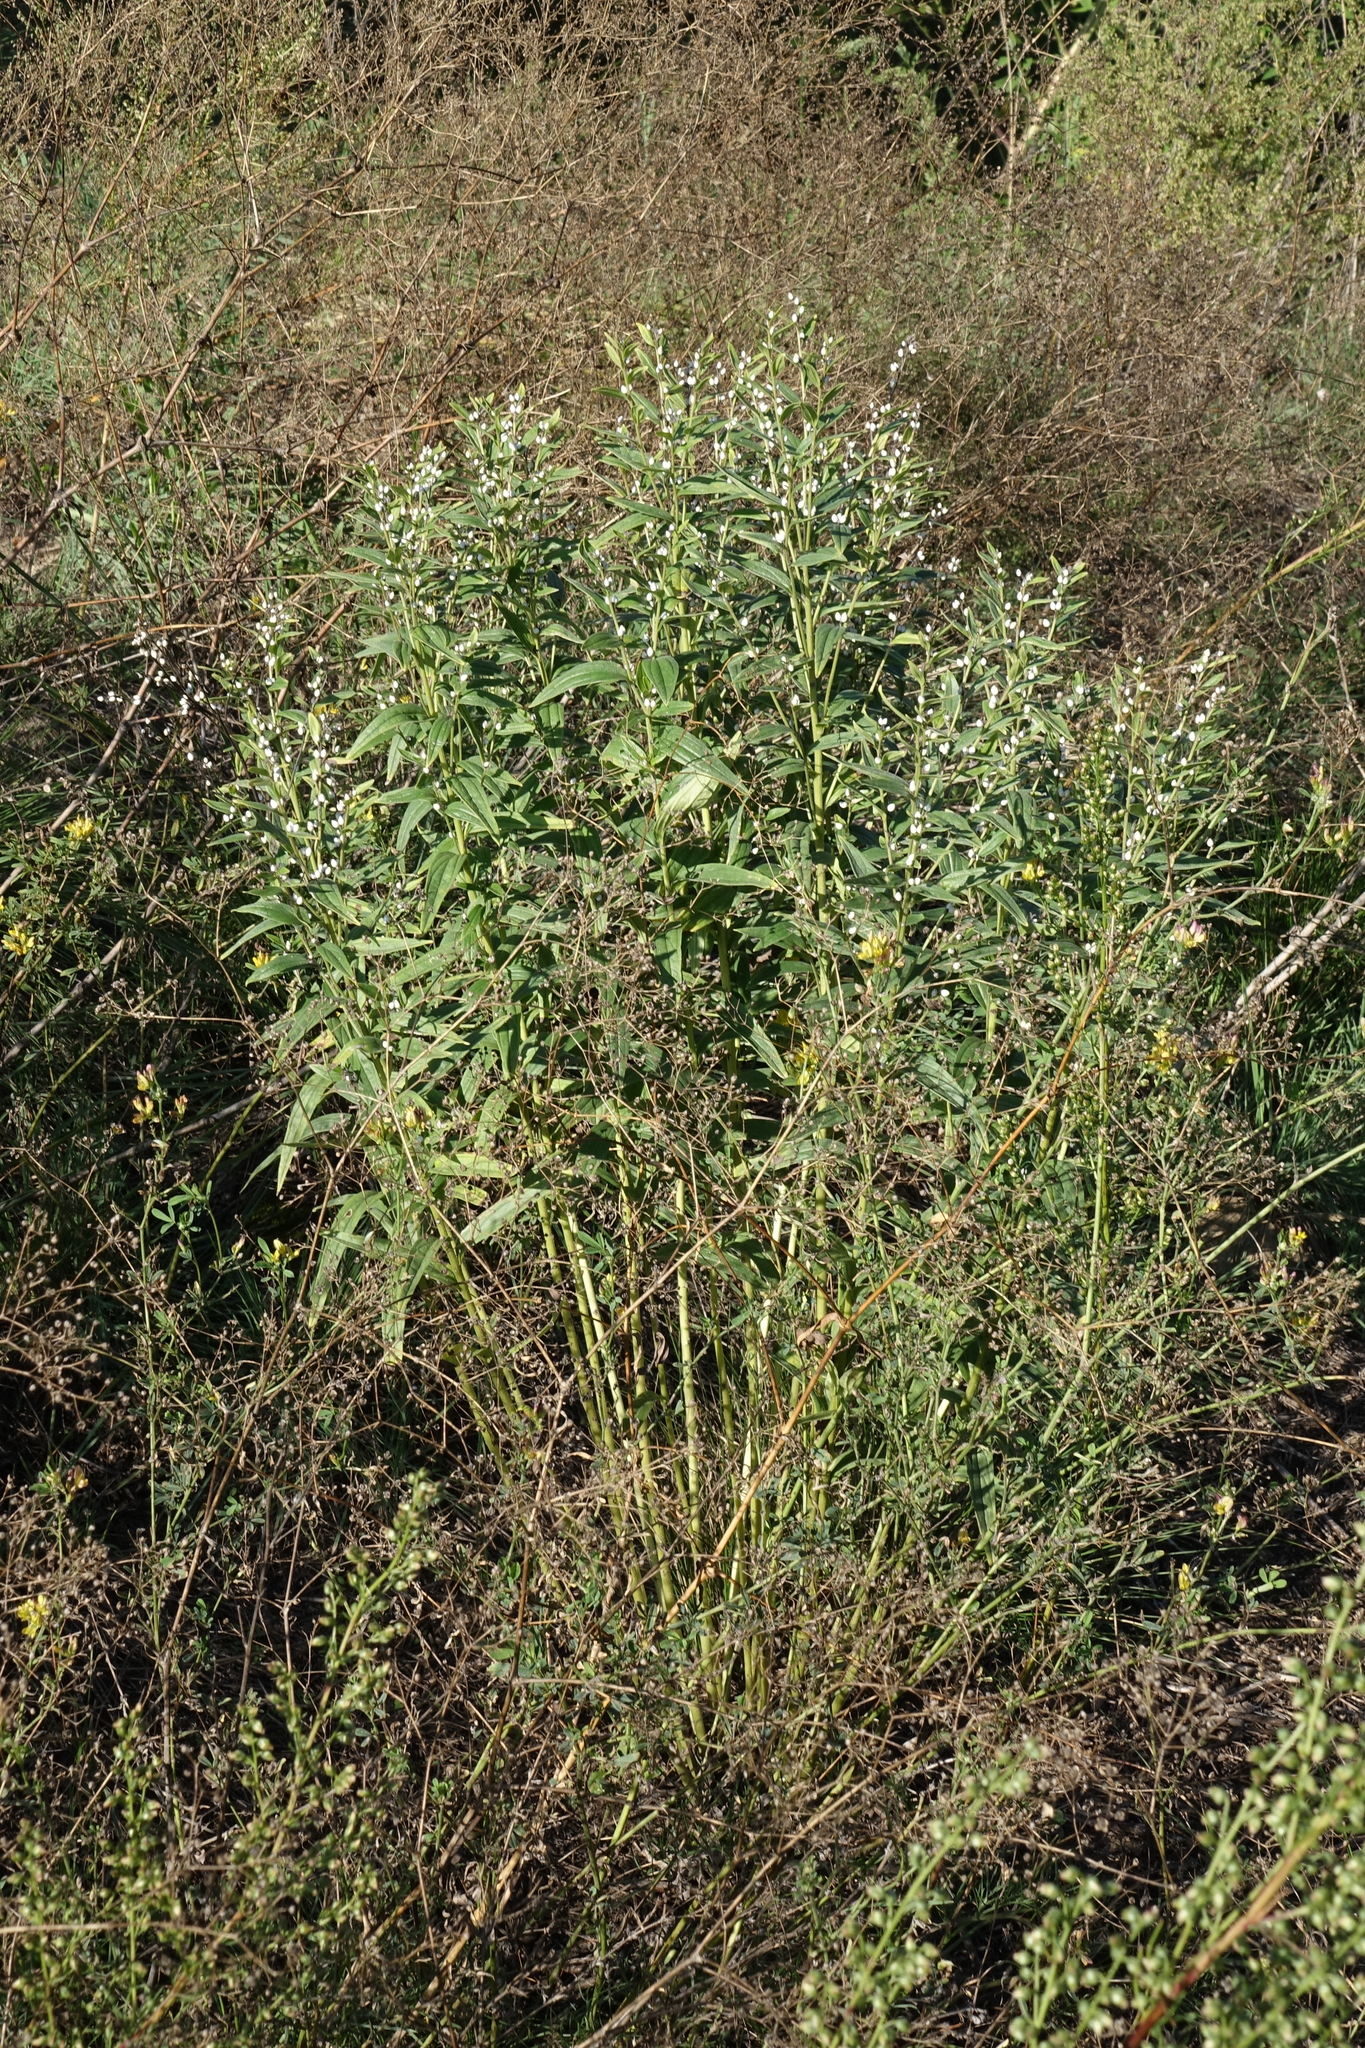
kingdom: Plantae
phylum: Tracheophyta
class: Magnoliopsida
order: Boraginales
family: Boraginaceae
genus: Lithospermum
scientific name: Lithospermum officinale
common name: Common gromwell
